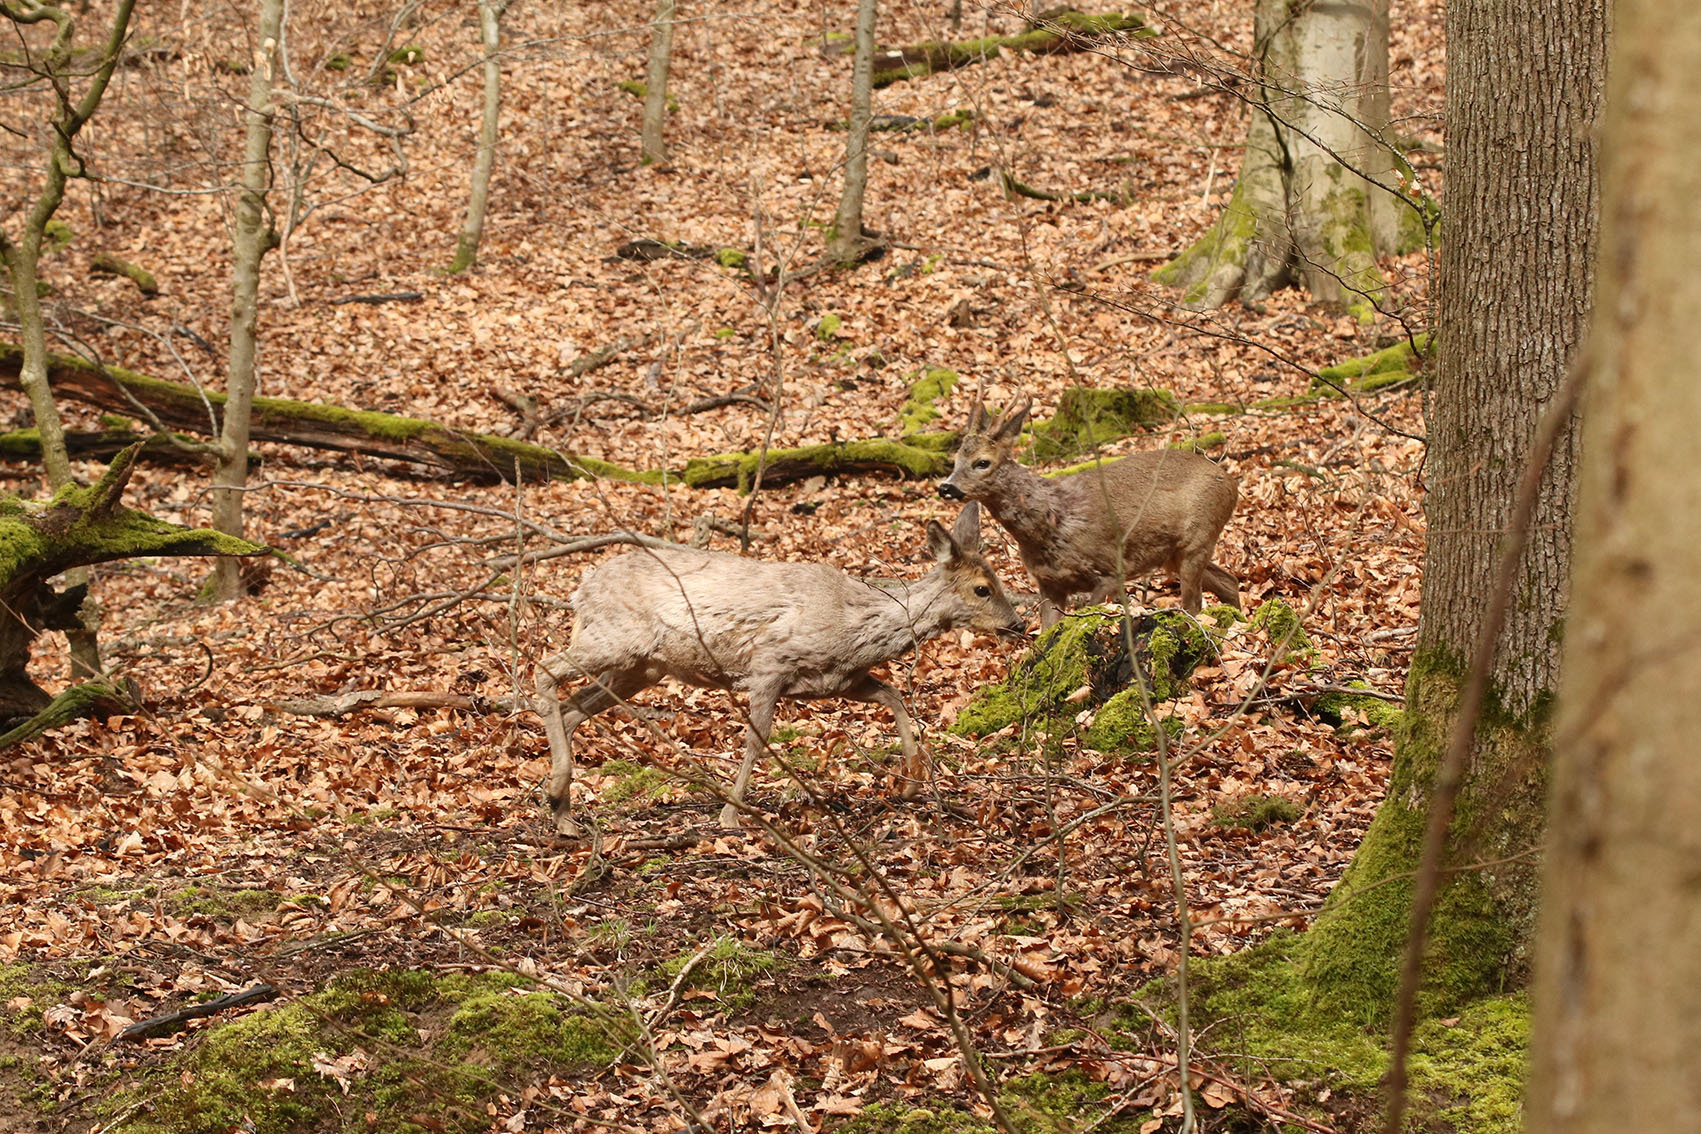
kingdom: Animalia
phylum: Chordata
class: Mammalia
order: Artiodactyla
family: Cervidae
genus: Capreolus
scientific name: Capreolus capreolus
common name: Western roe deer
